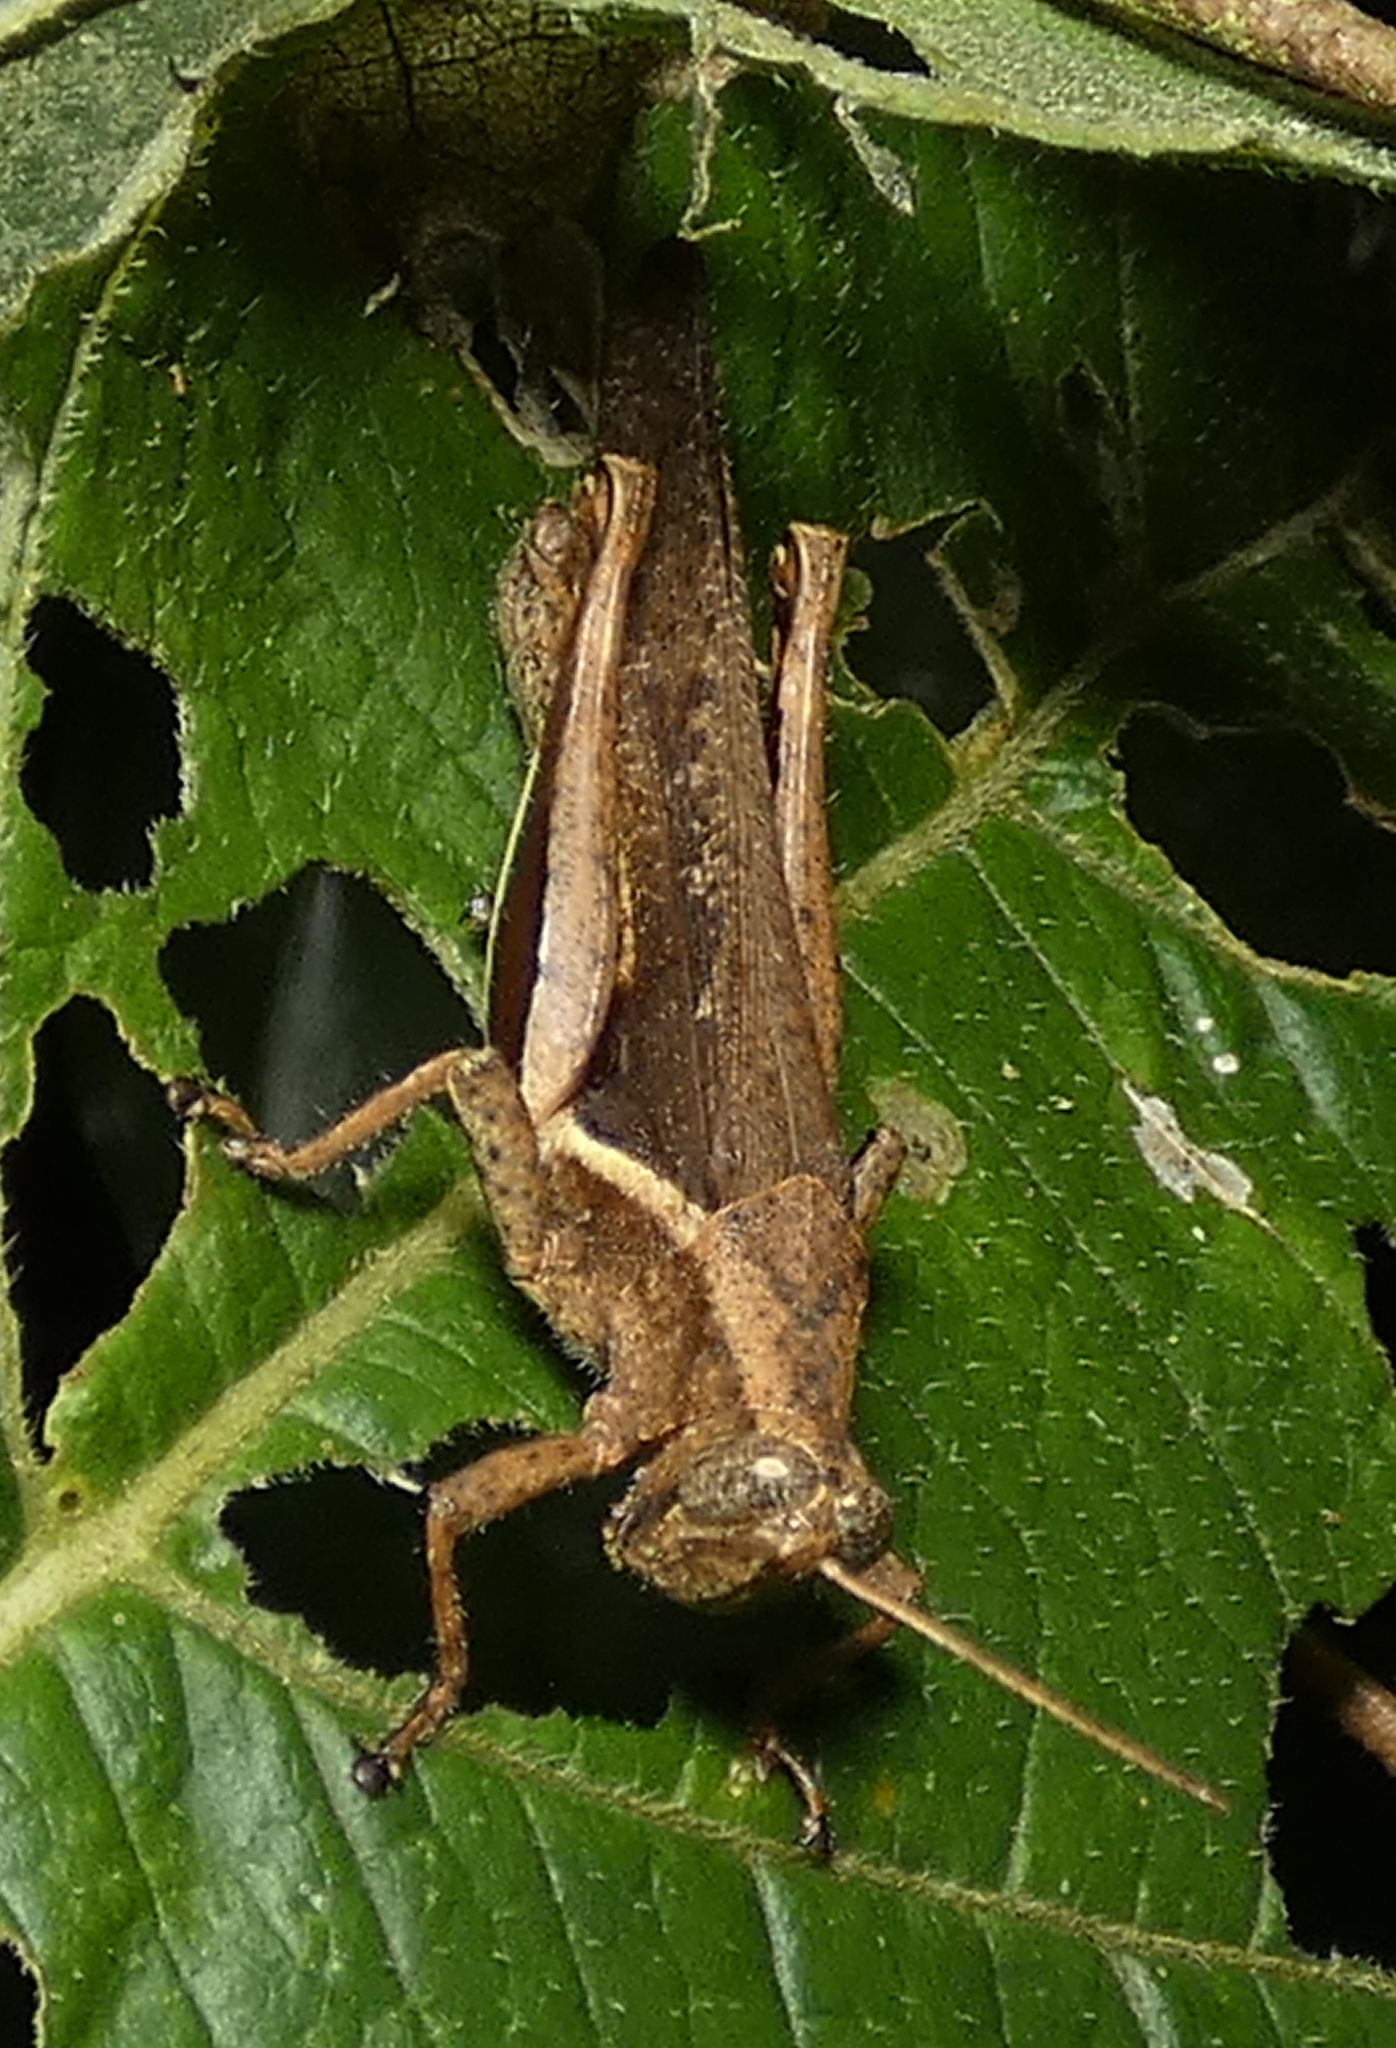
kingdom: Animalia
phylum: Arthropoda
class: Insecta
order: Orthoptera
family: Acrididae
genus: Abracris
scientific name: Abracris flavolineata
